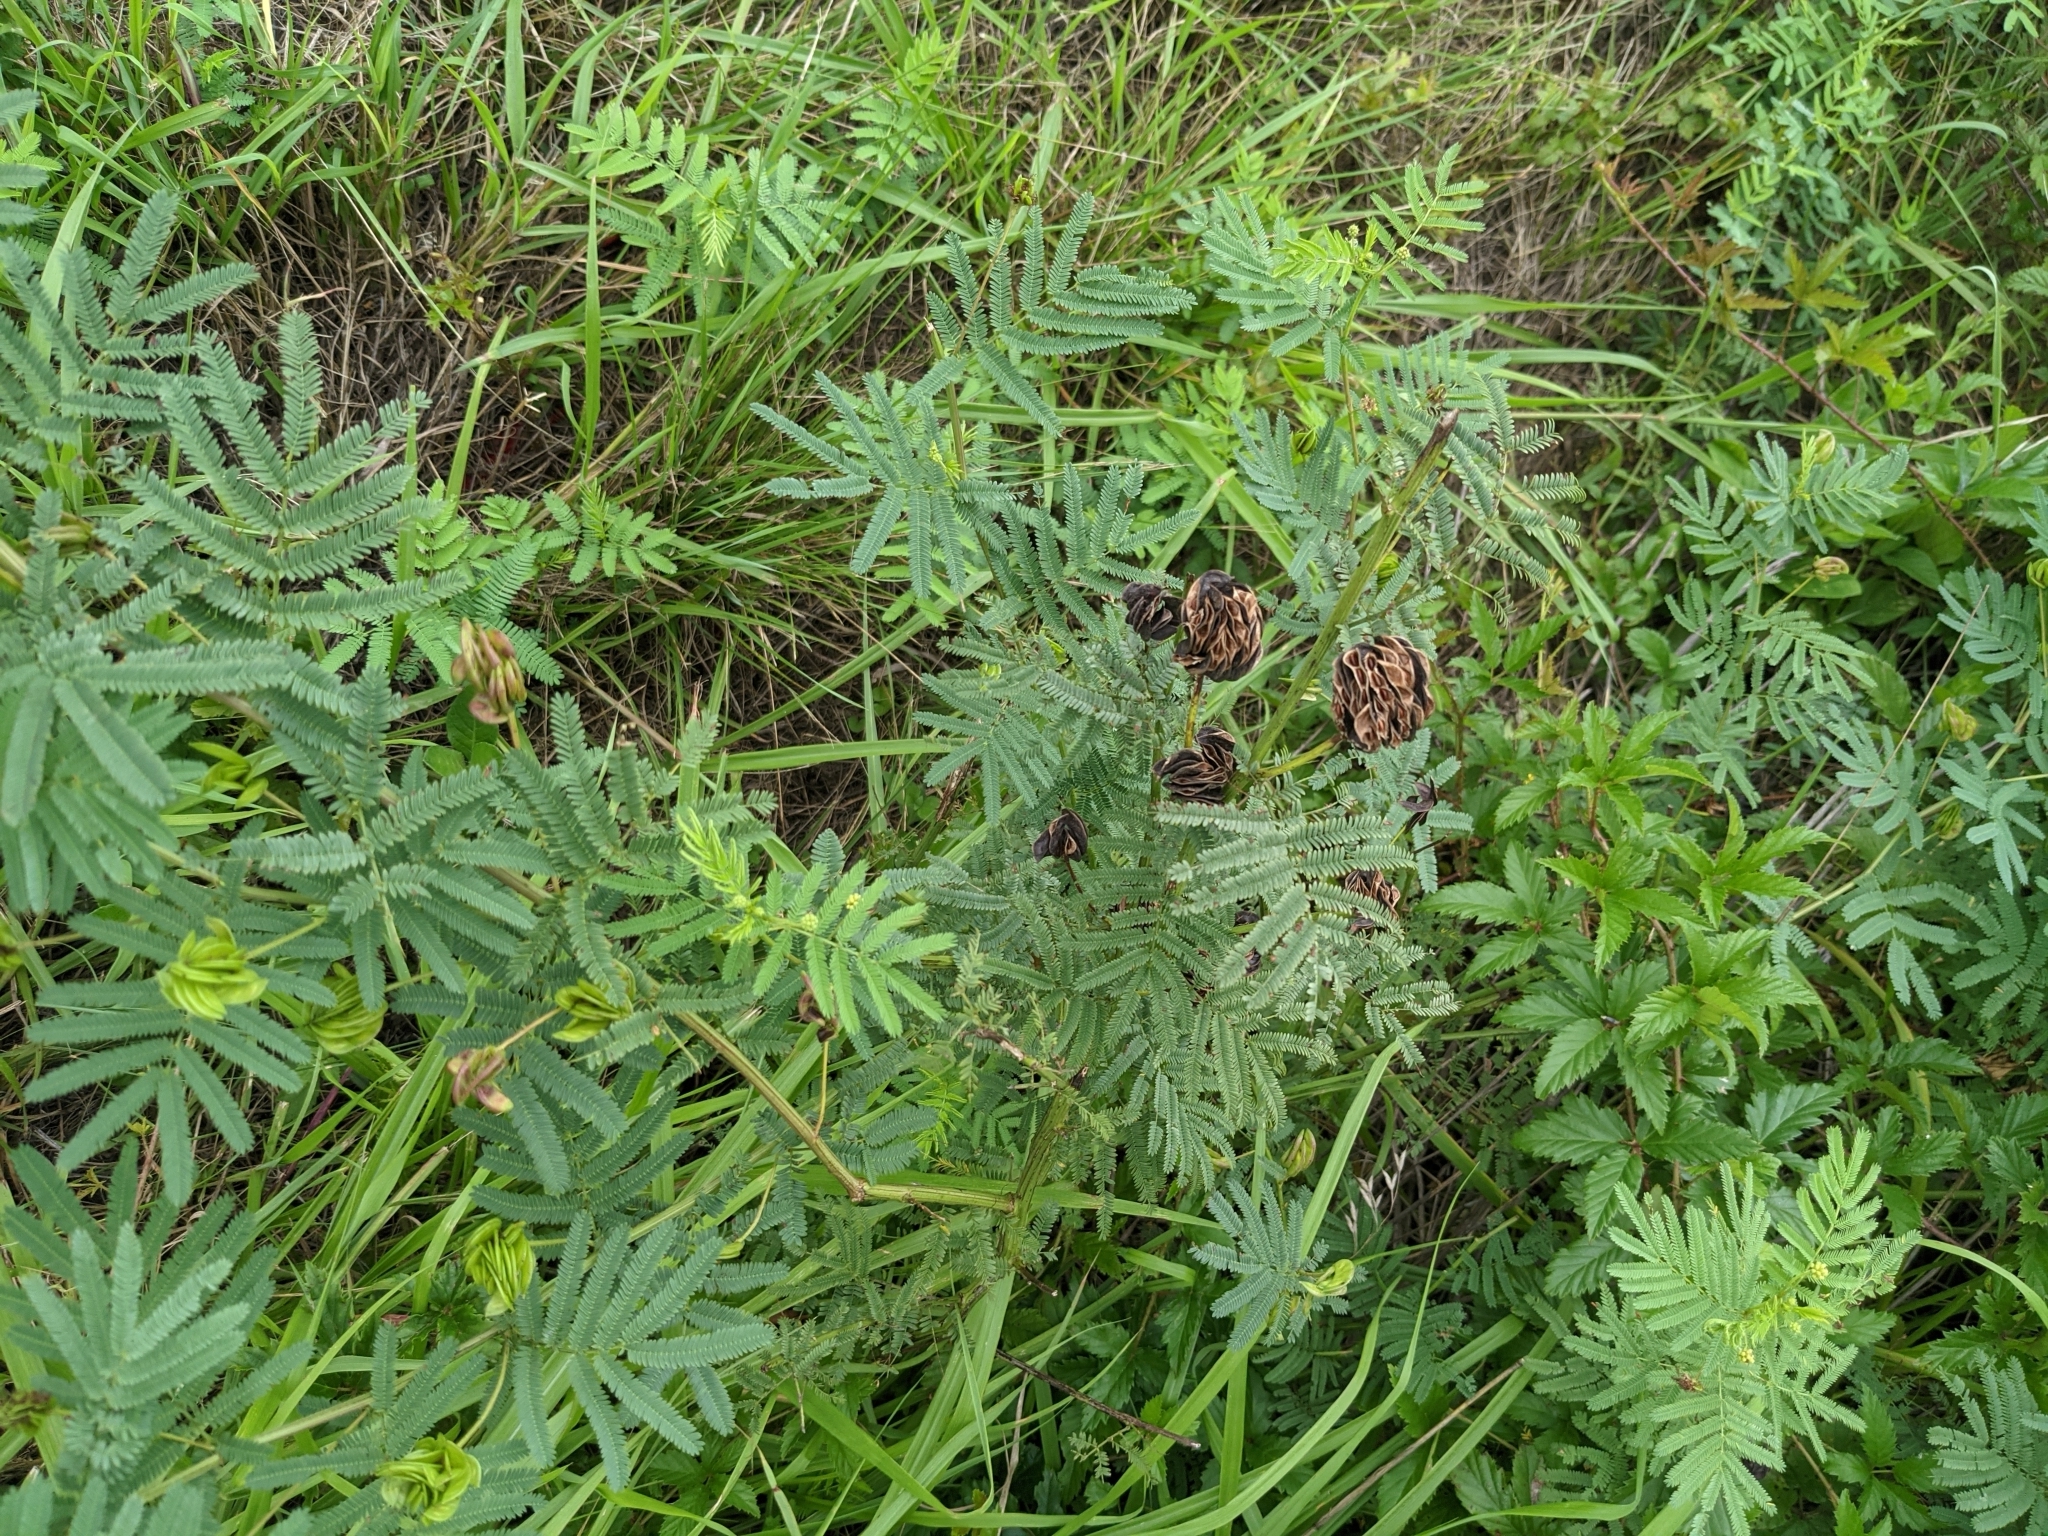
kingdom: Plantae
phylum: Tracheophyta
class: Magnoliopsida
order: Fabales
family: Fabaceae
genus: Desmanthus
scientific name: Desmanthus illinoensis
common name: Illinois bundle-flower
